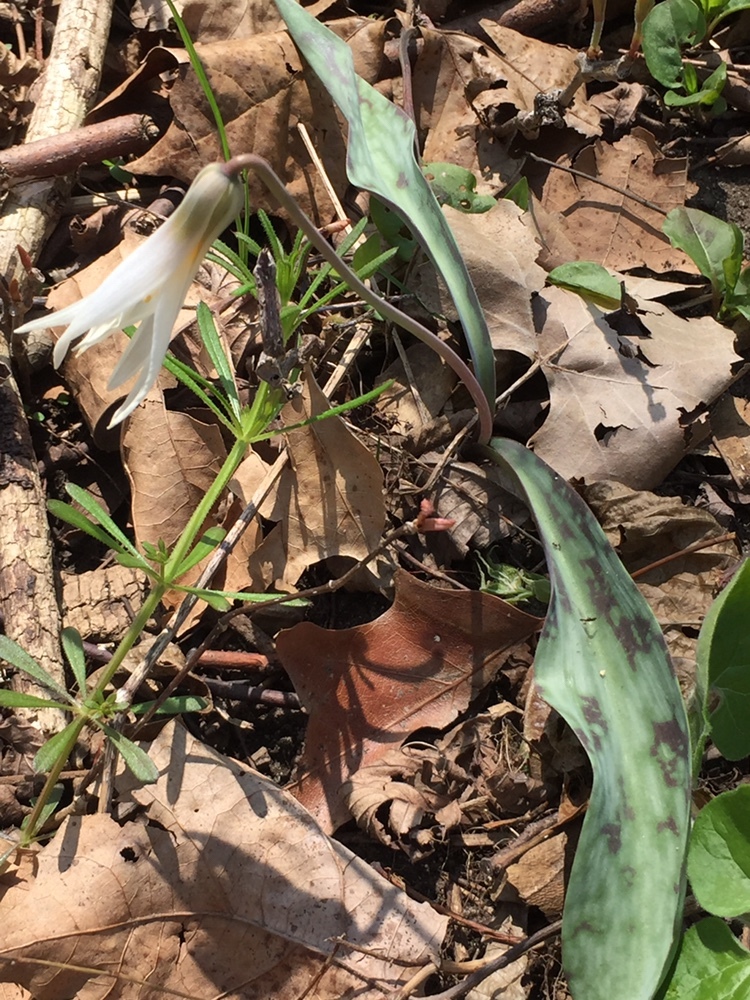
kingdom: Plantae
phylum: Tracheophyta
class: Liliopsida
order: Liliales
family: Liliaceae
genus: Erythronium
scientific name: Erythronium albidum
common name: White trout-lily
